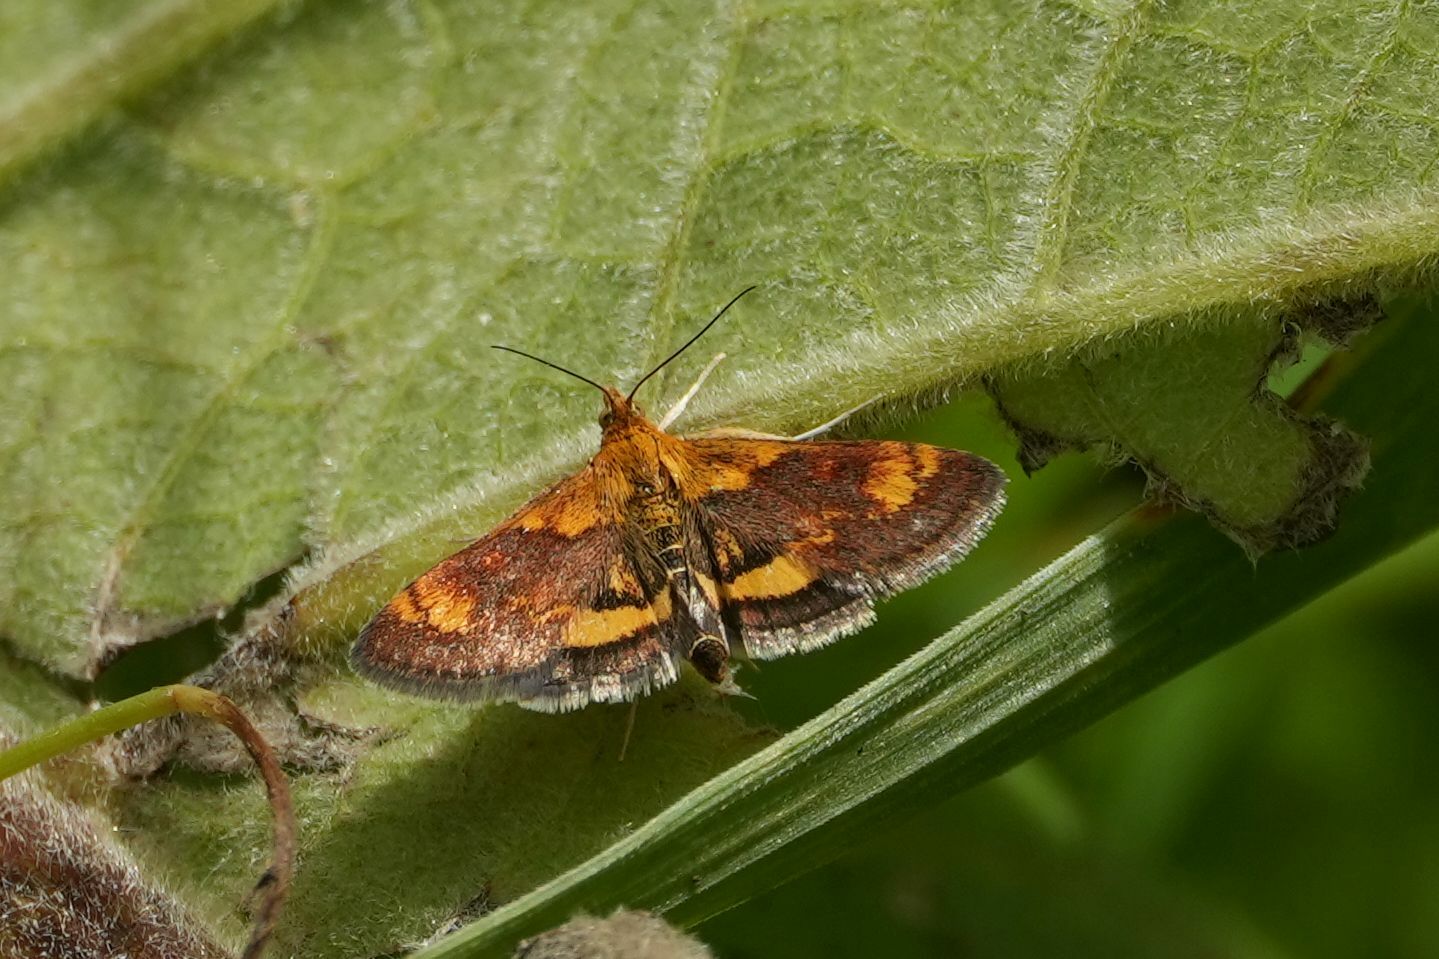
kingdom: Animalia
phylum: Arthropoda
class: Insecta
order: Lepidoptera
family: Crambidae
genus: Pyrausta
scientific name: Pyrausta orphisalis
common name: Orange mint moth
